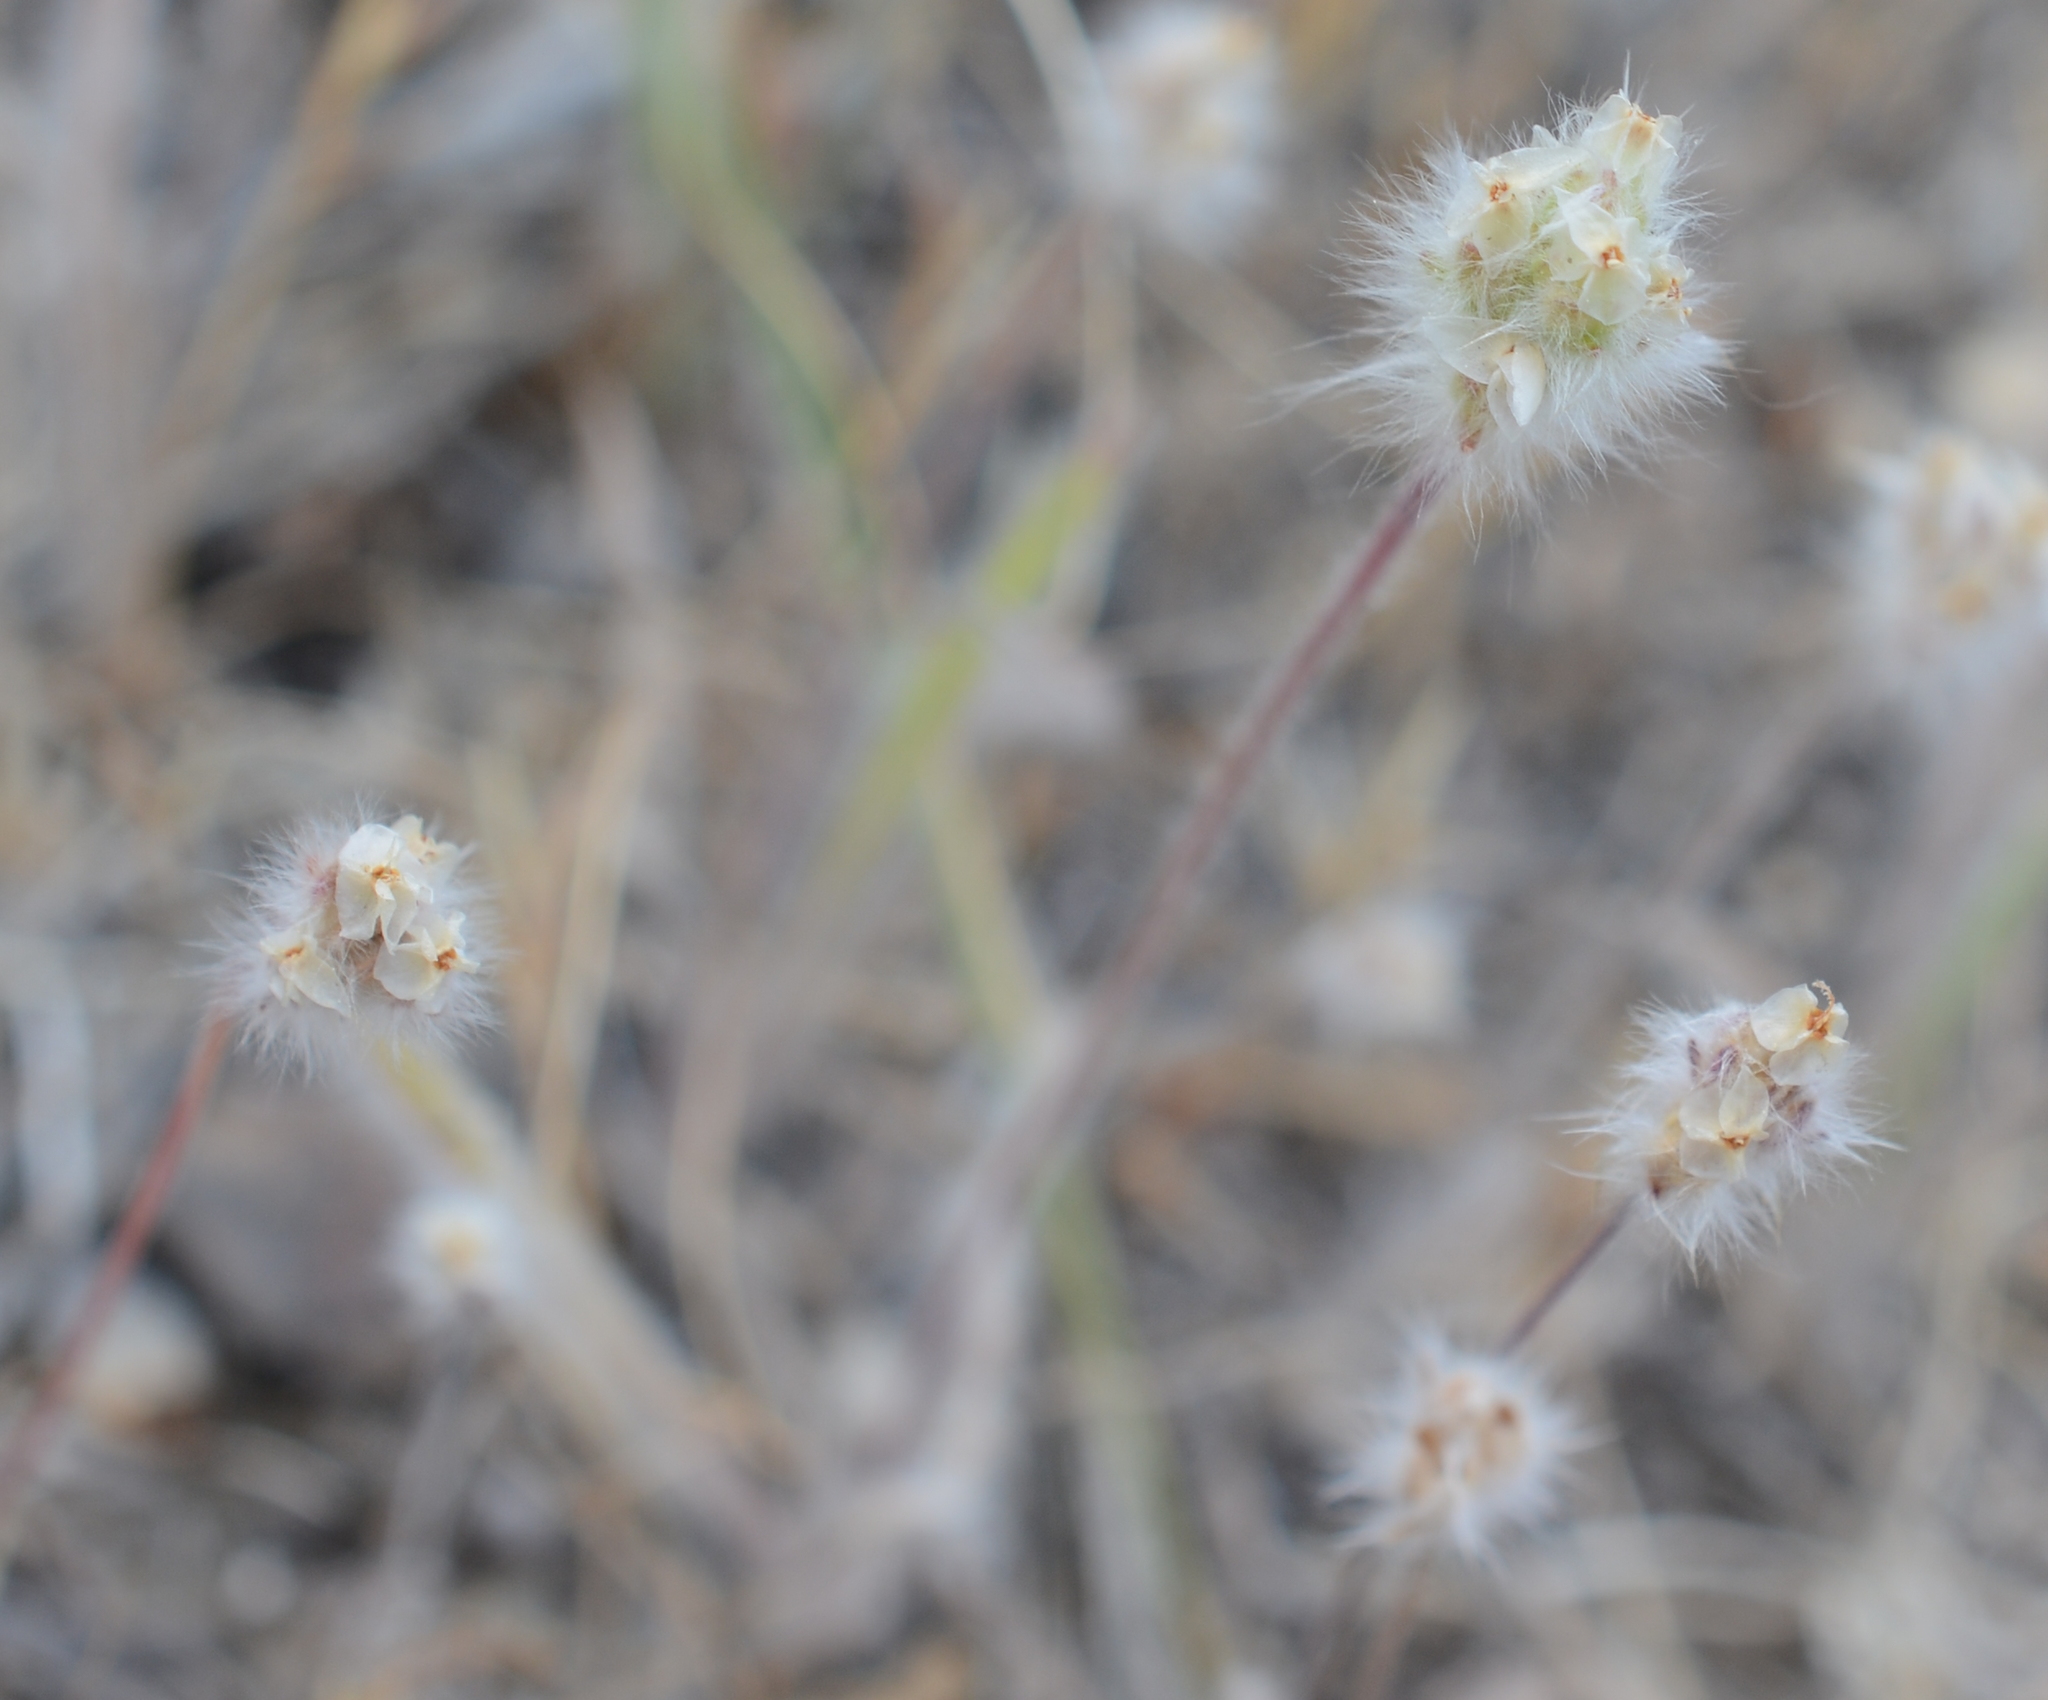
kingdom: Plantae
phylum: Tracheophyta
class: Magnoliopsida
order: Lamiales
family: Plantaginaceae
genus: Plantago
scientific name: Plantago patagonica
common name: Patagonia indian-wheat
